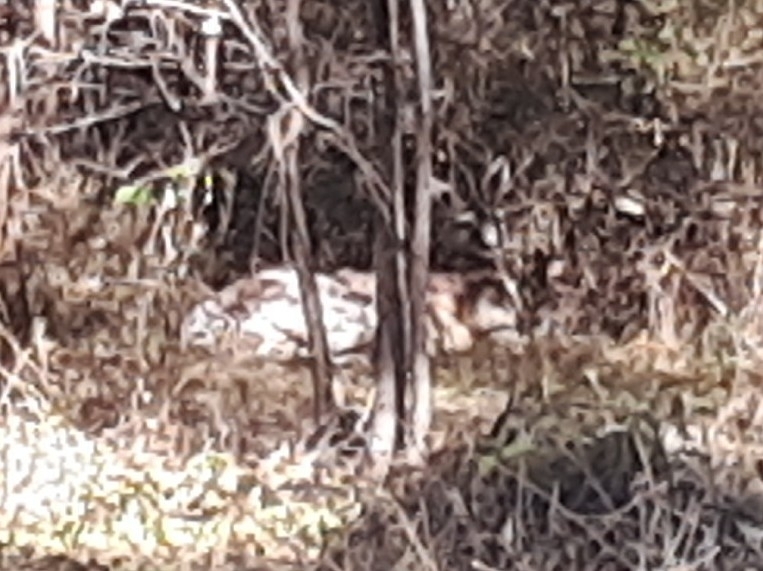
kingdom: Animalia
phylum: Chordata
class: Mammalia
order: Diprotodontia
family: Macropodidae
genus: Macropus
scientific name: Macropus giganteus
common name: Eastern grey kangaroo
